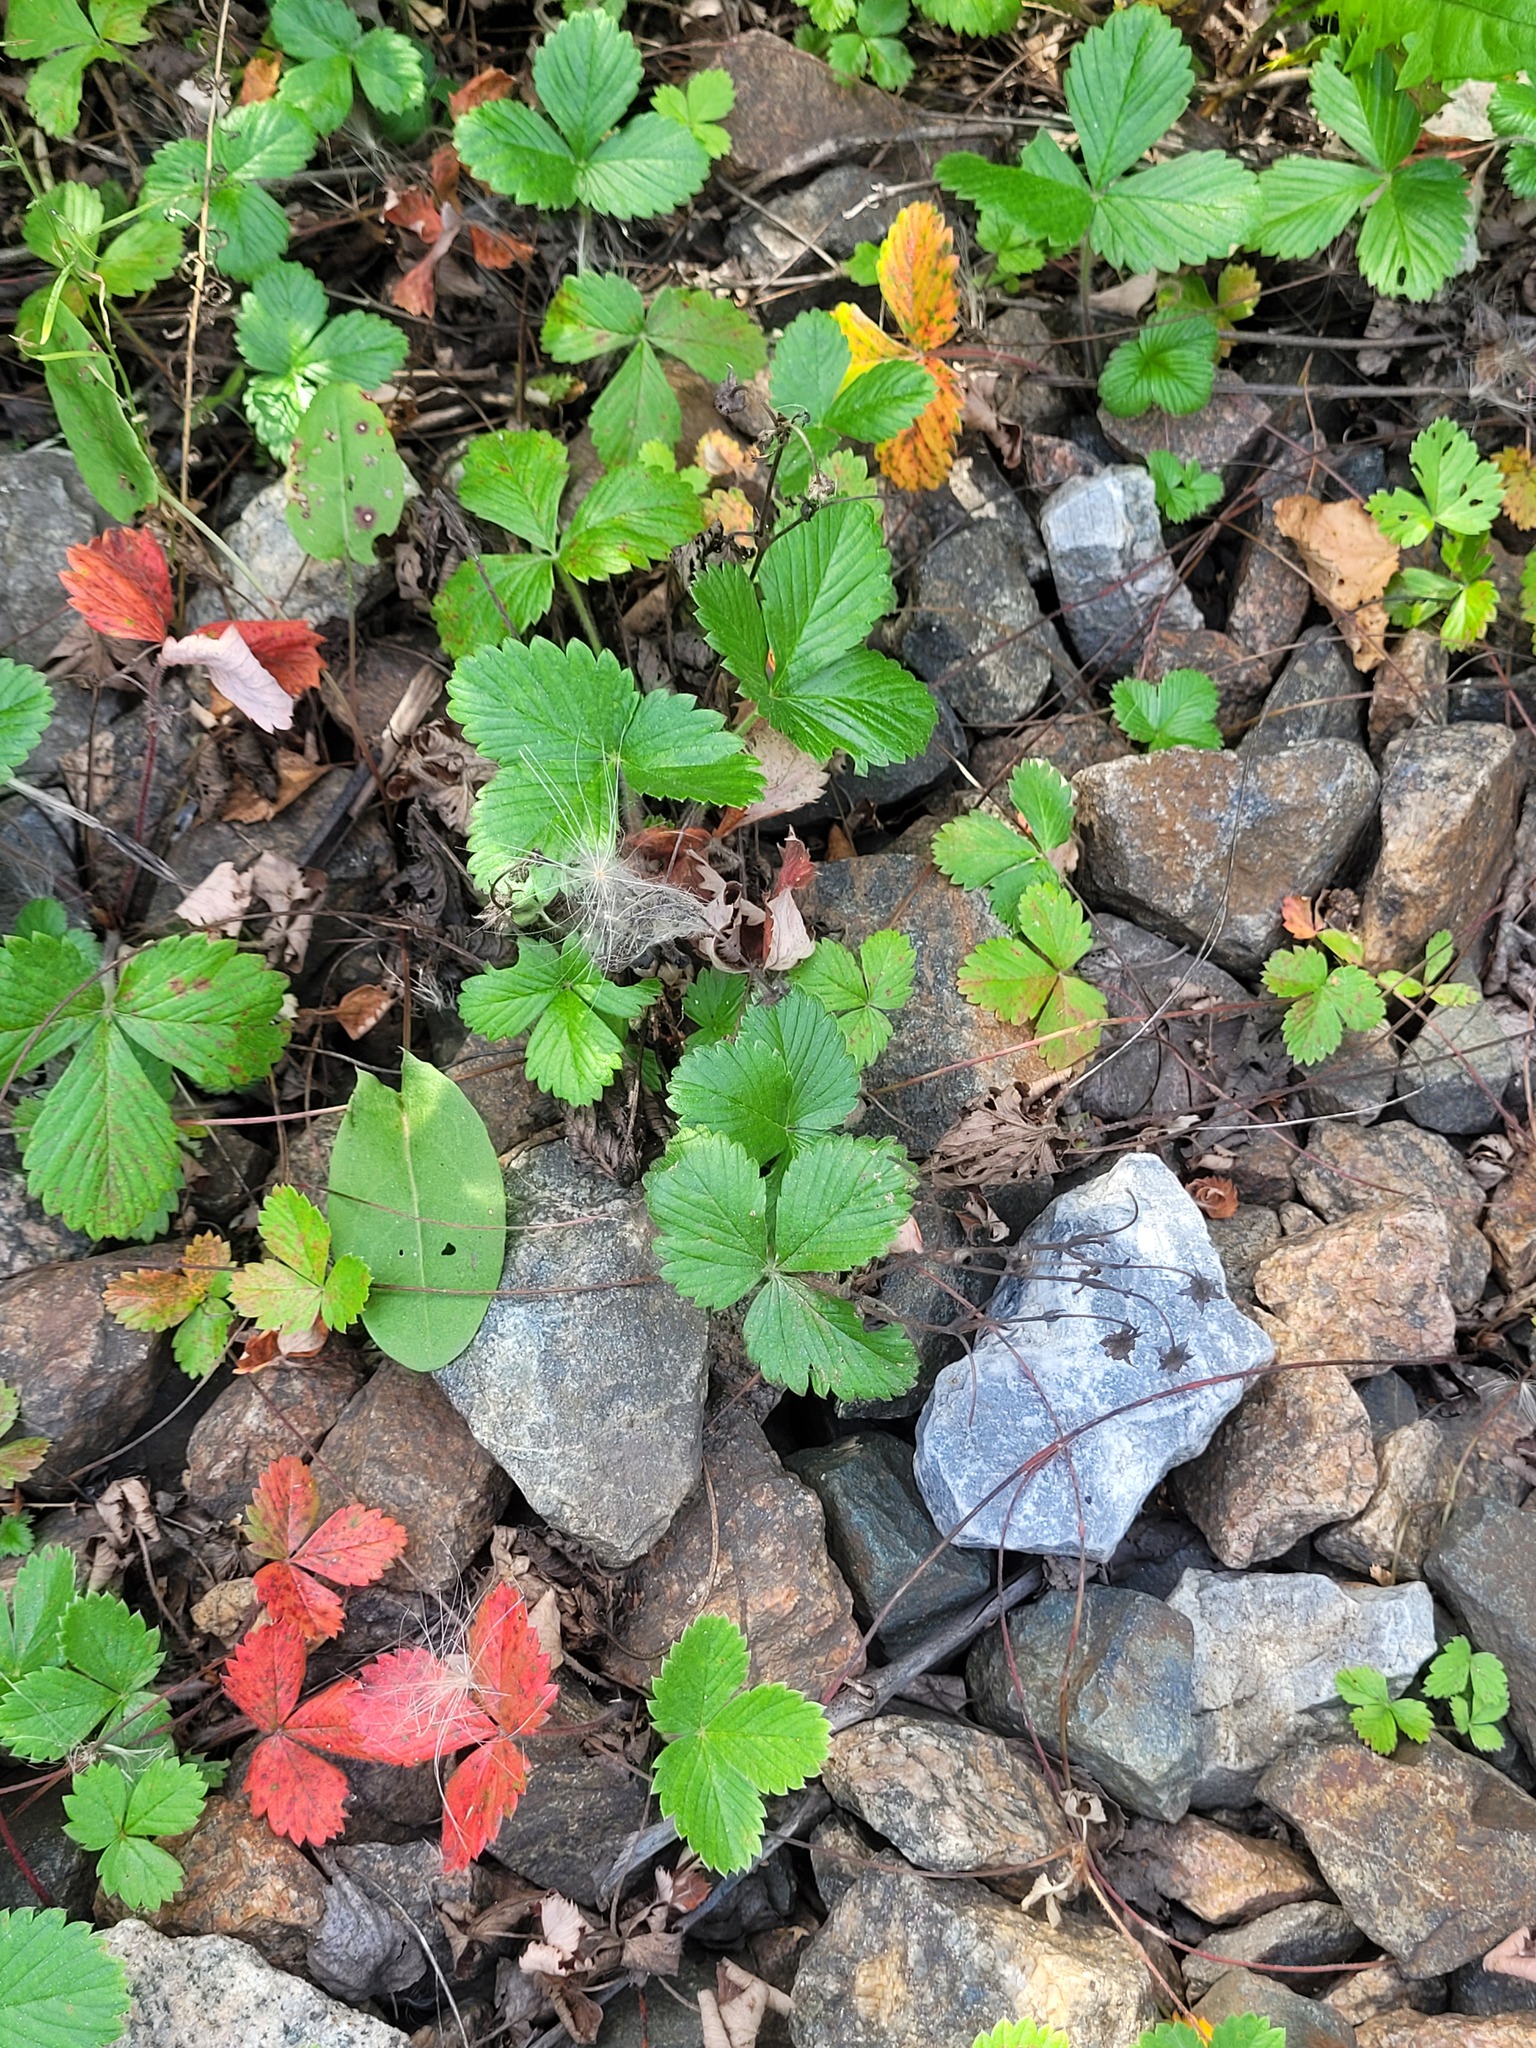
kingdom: Plantae
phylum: Tracheophyta
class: Magnoliopsida
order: Rosales
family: Rosaceae
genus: Fragaria
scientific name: Fragaria viridis
